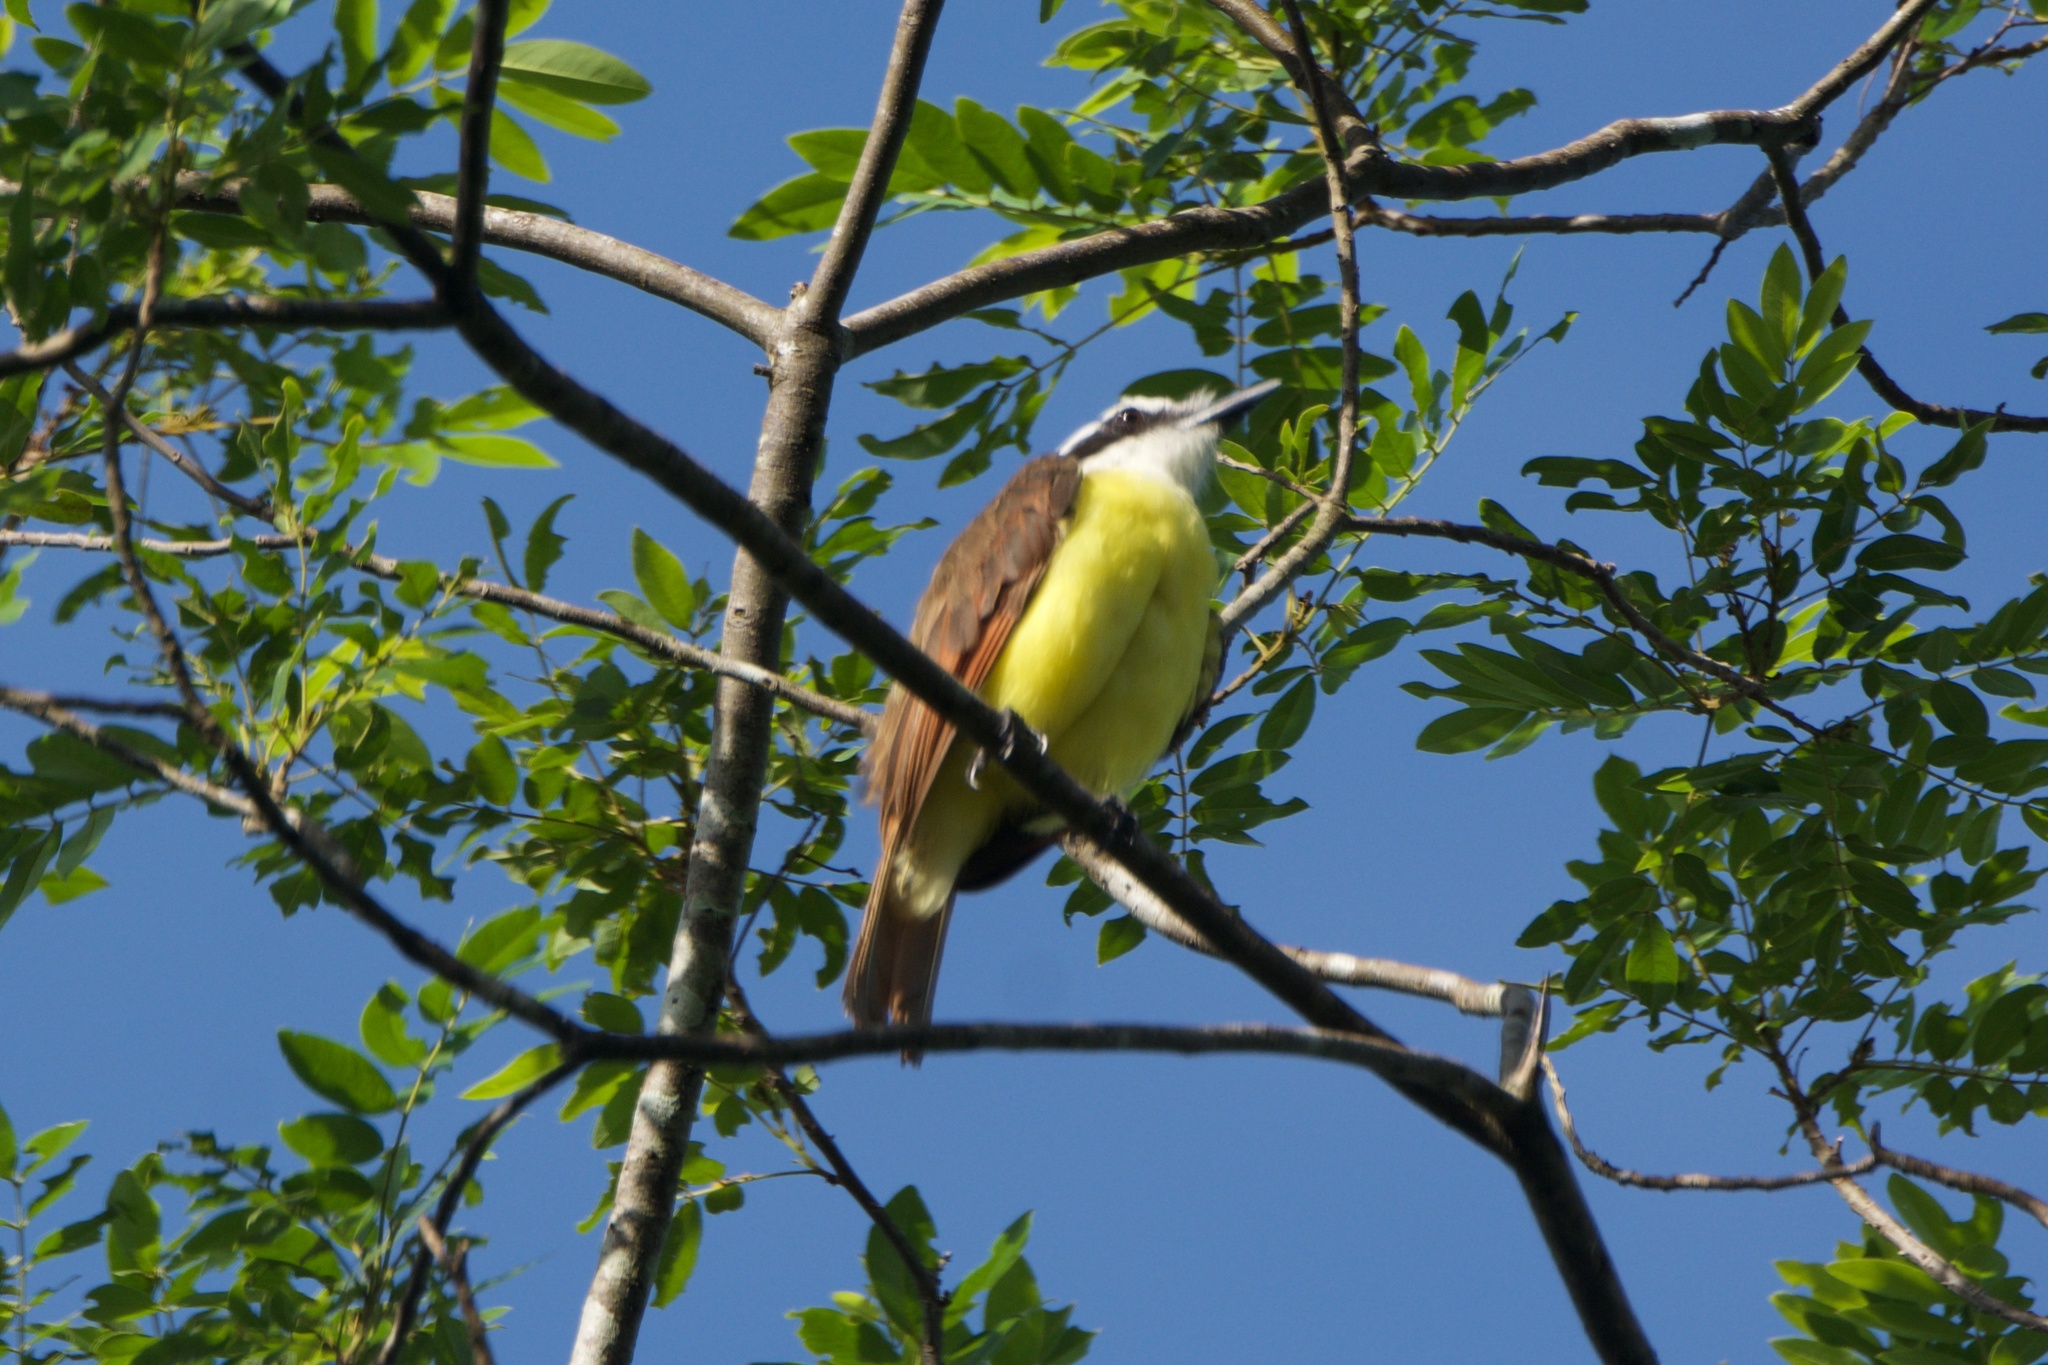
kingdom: Animalia
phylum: Chordata
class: Aves
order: Passeriformes
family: Tyrannidae
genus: Pitangus
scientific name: Pitangus sulphuratus
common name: Great kiskadee
